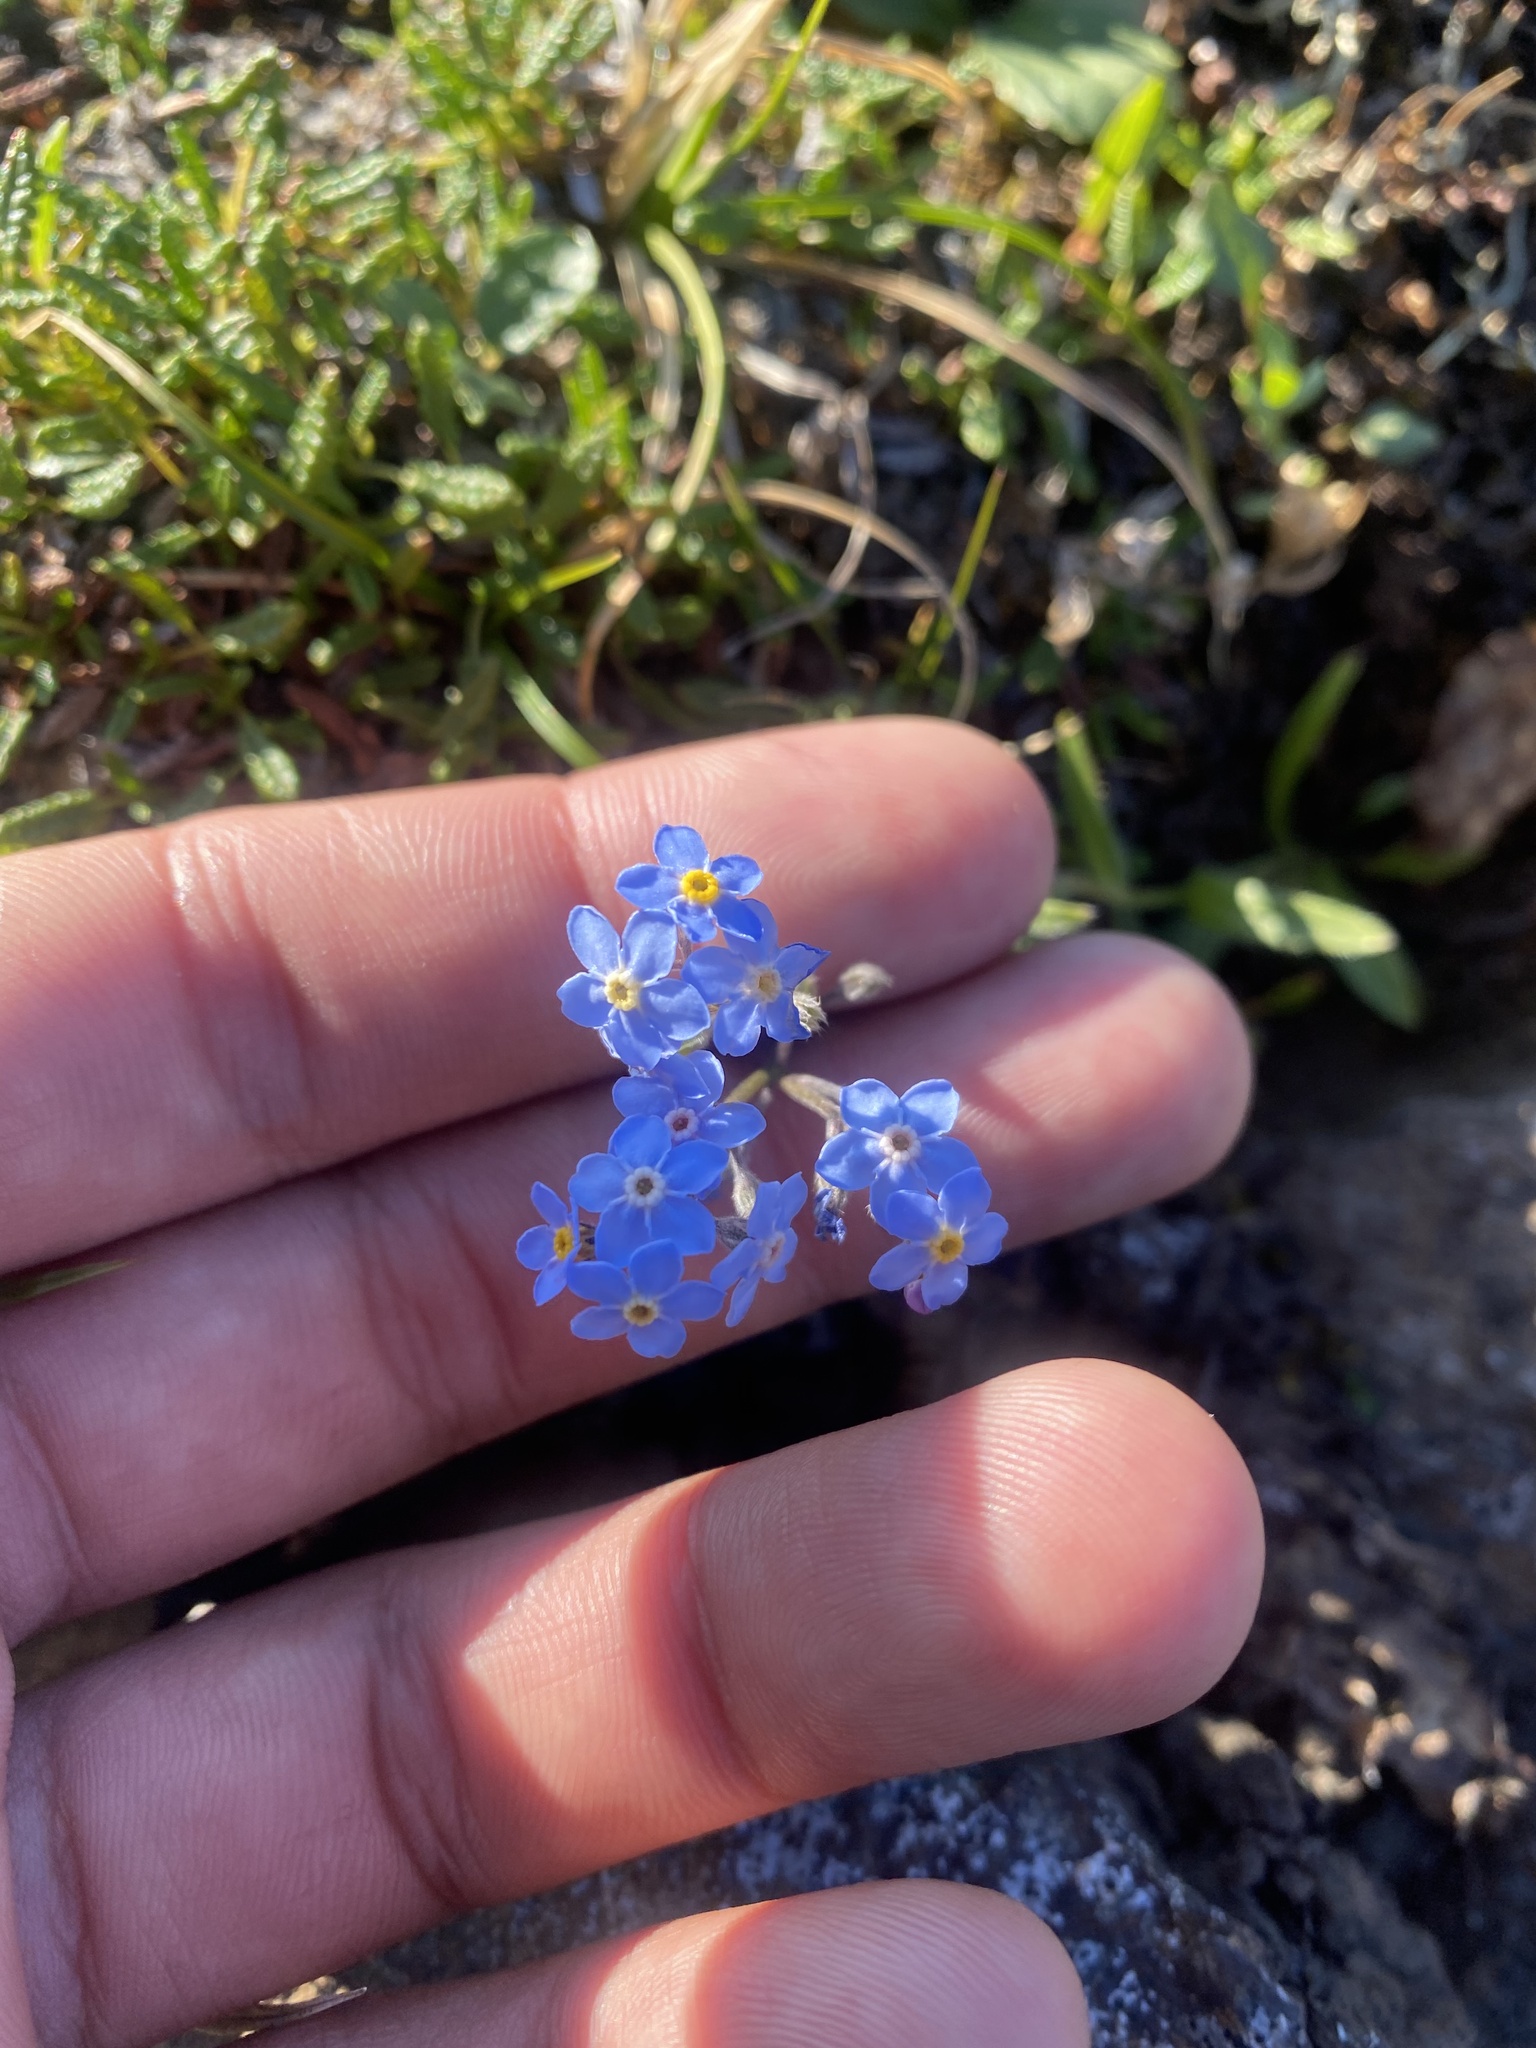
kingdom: Plantae
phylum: Tracheophyta
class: Magnoliopsida
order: Boraginales
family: Boraginaceae
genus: Myosotis
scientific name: Myosotis asiatica
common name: Asian forget-me-not
